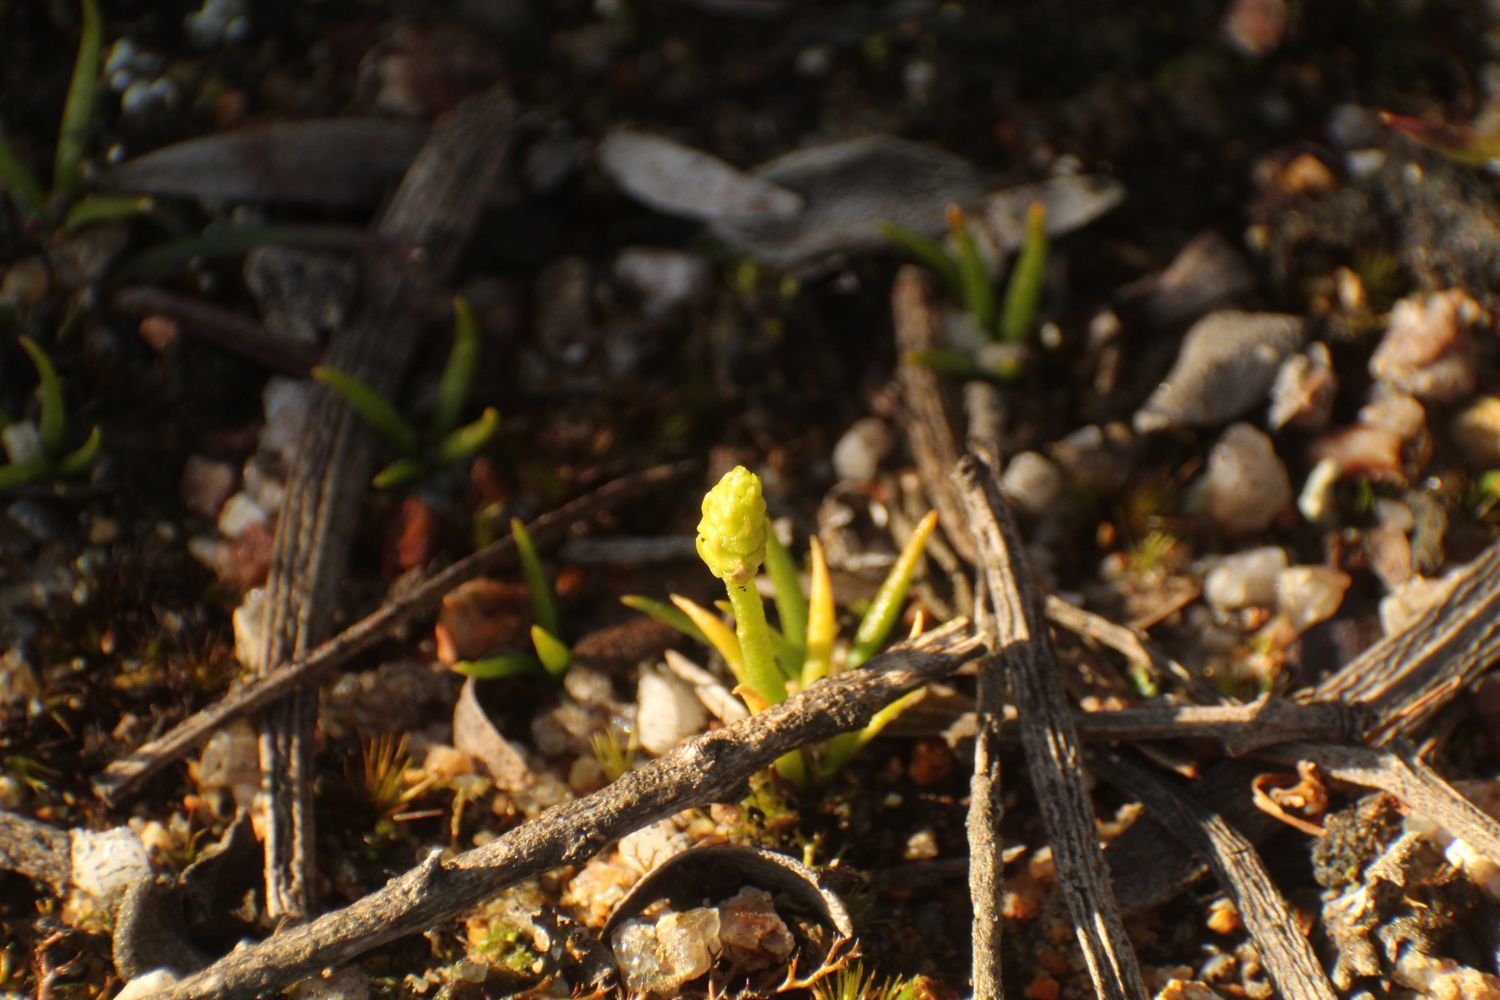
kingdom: Plantae
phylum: Tracheophyta
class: Lycopodiopsida
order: Lycopodiales
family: Lycopodiaceae
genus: Phylloglossum
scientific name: Phylloglossum drummondii
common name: Pigmy-club-moss
